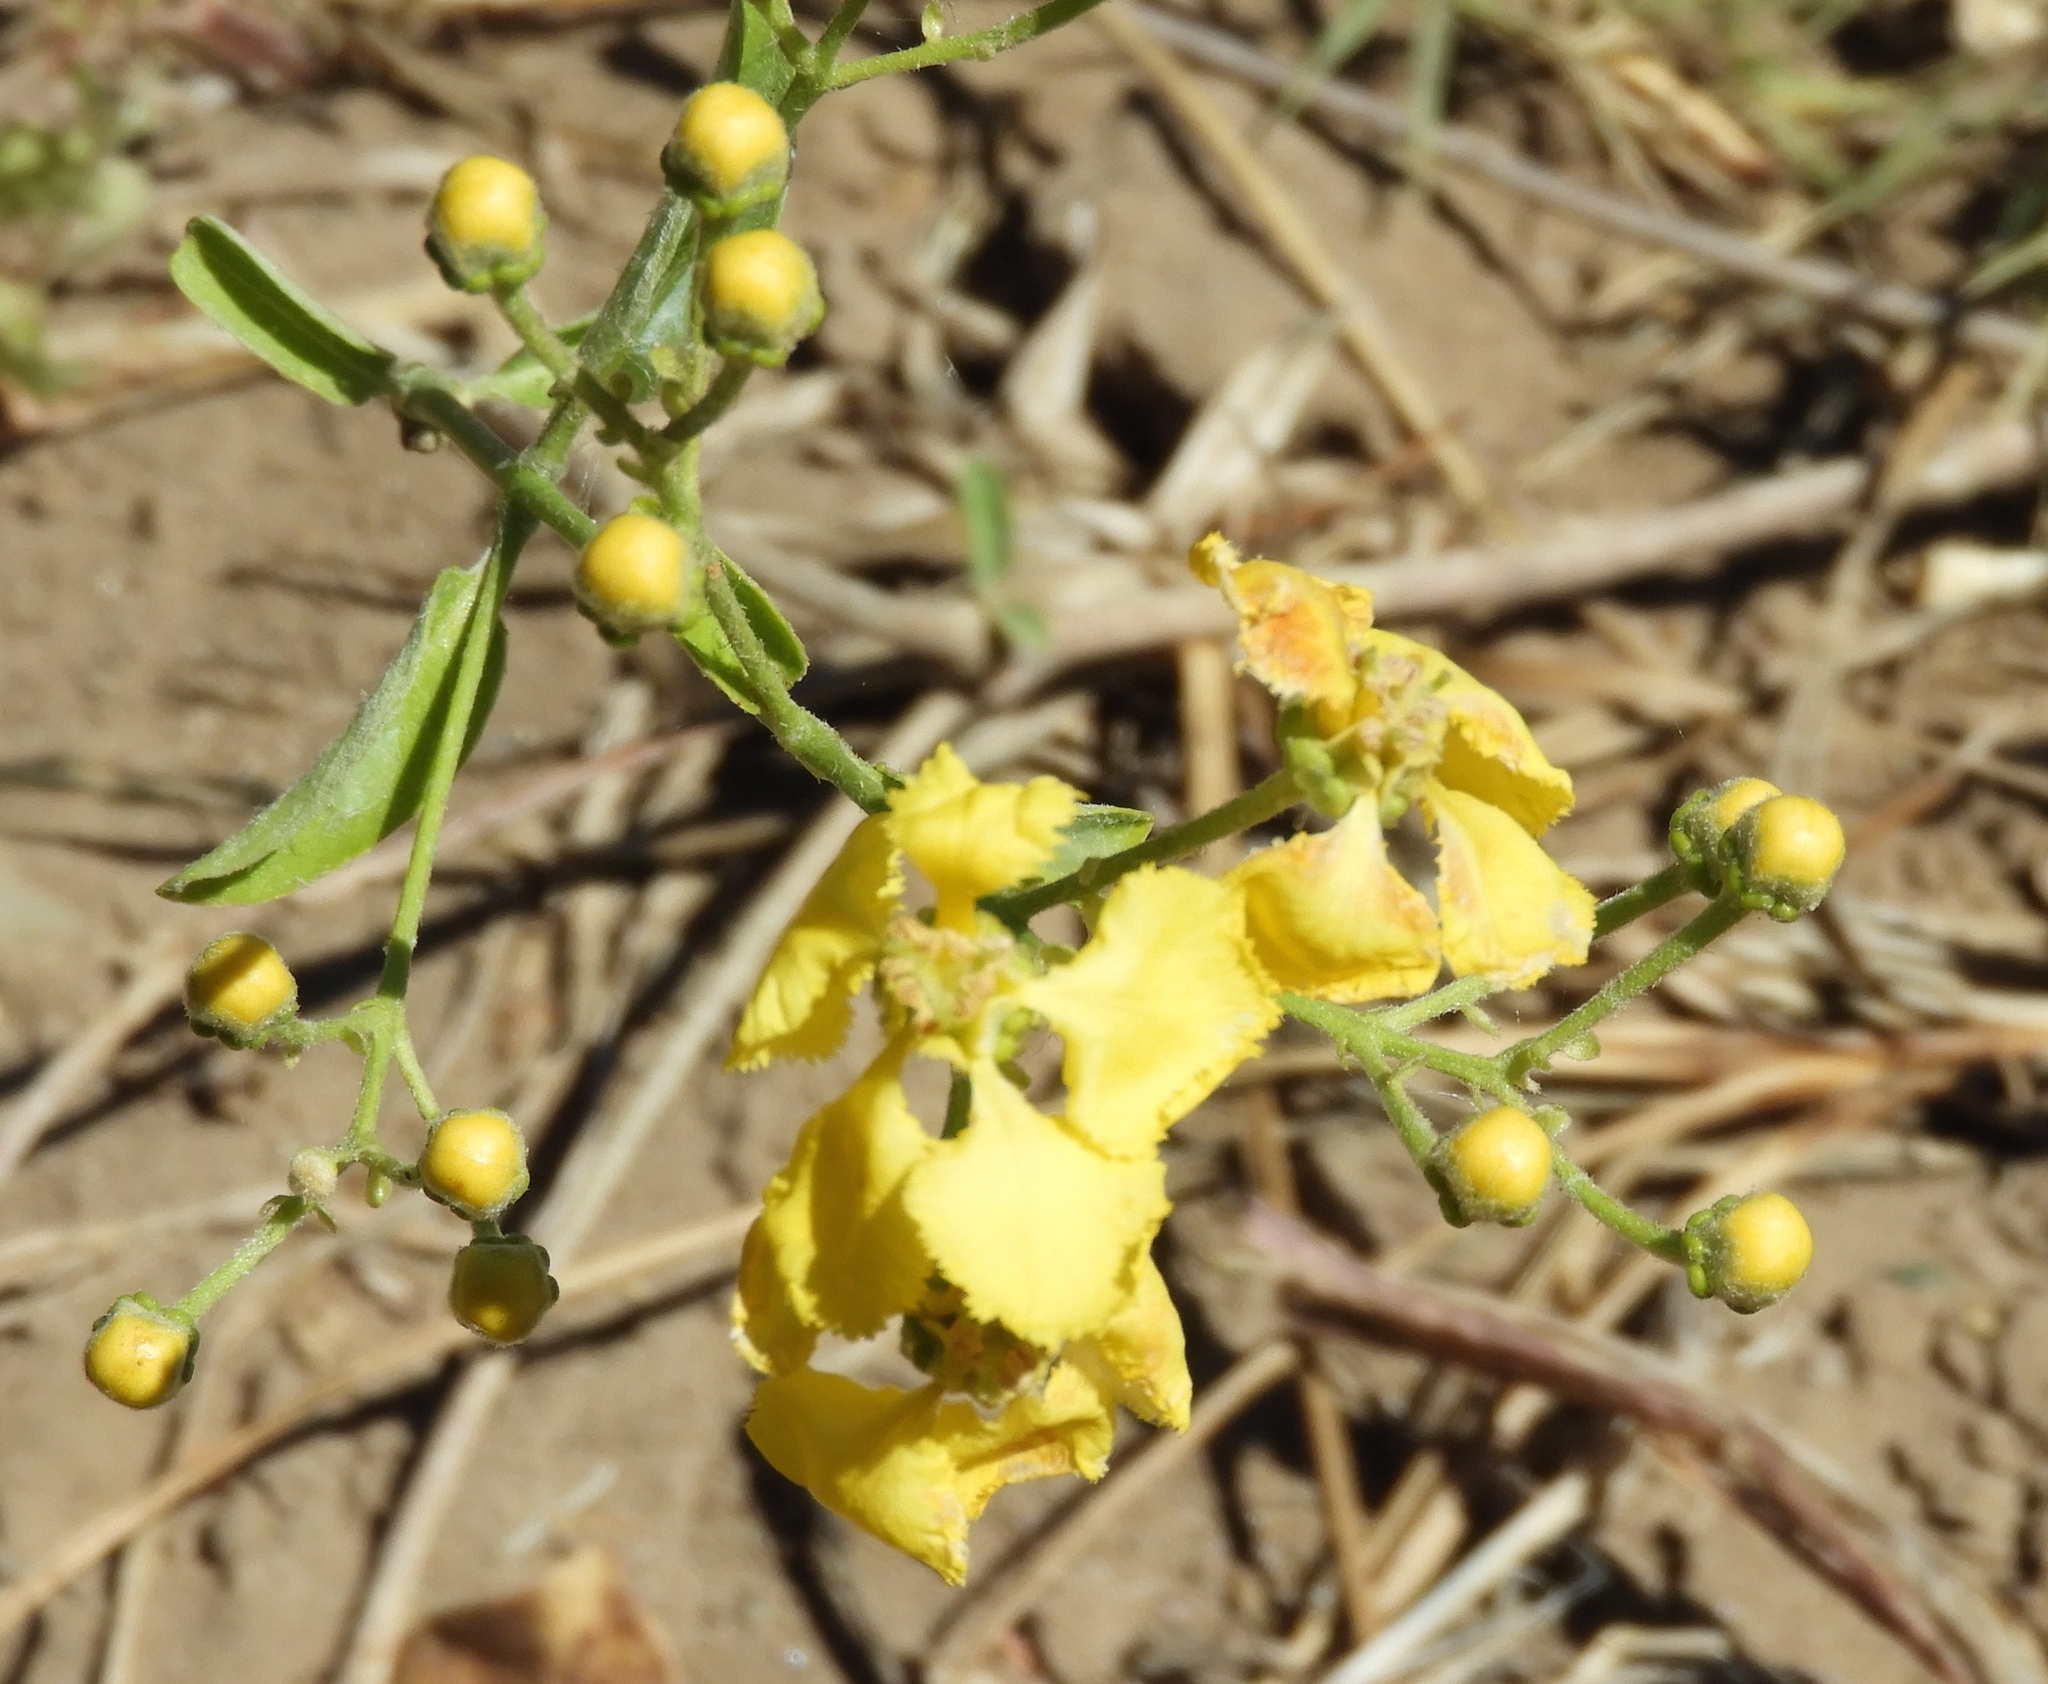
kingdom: Plantae
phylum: Tracheophyta
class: Magnoliopsida
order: Malpighiales
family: Malpighiaceae
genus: Callaeum
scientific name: Callaeum macropterum
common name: Mexican butterfly-vine
